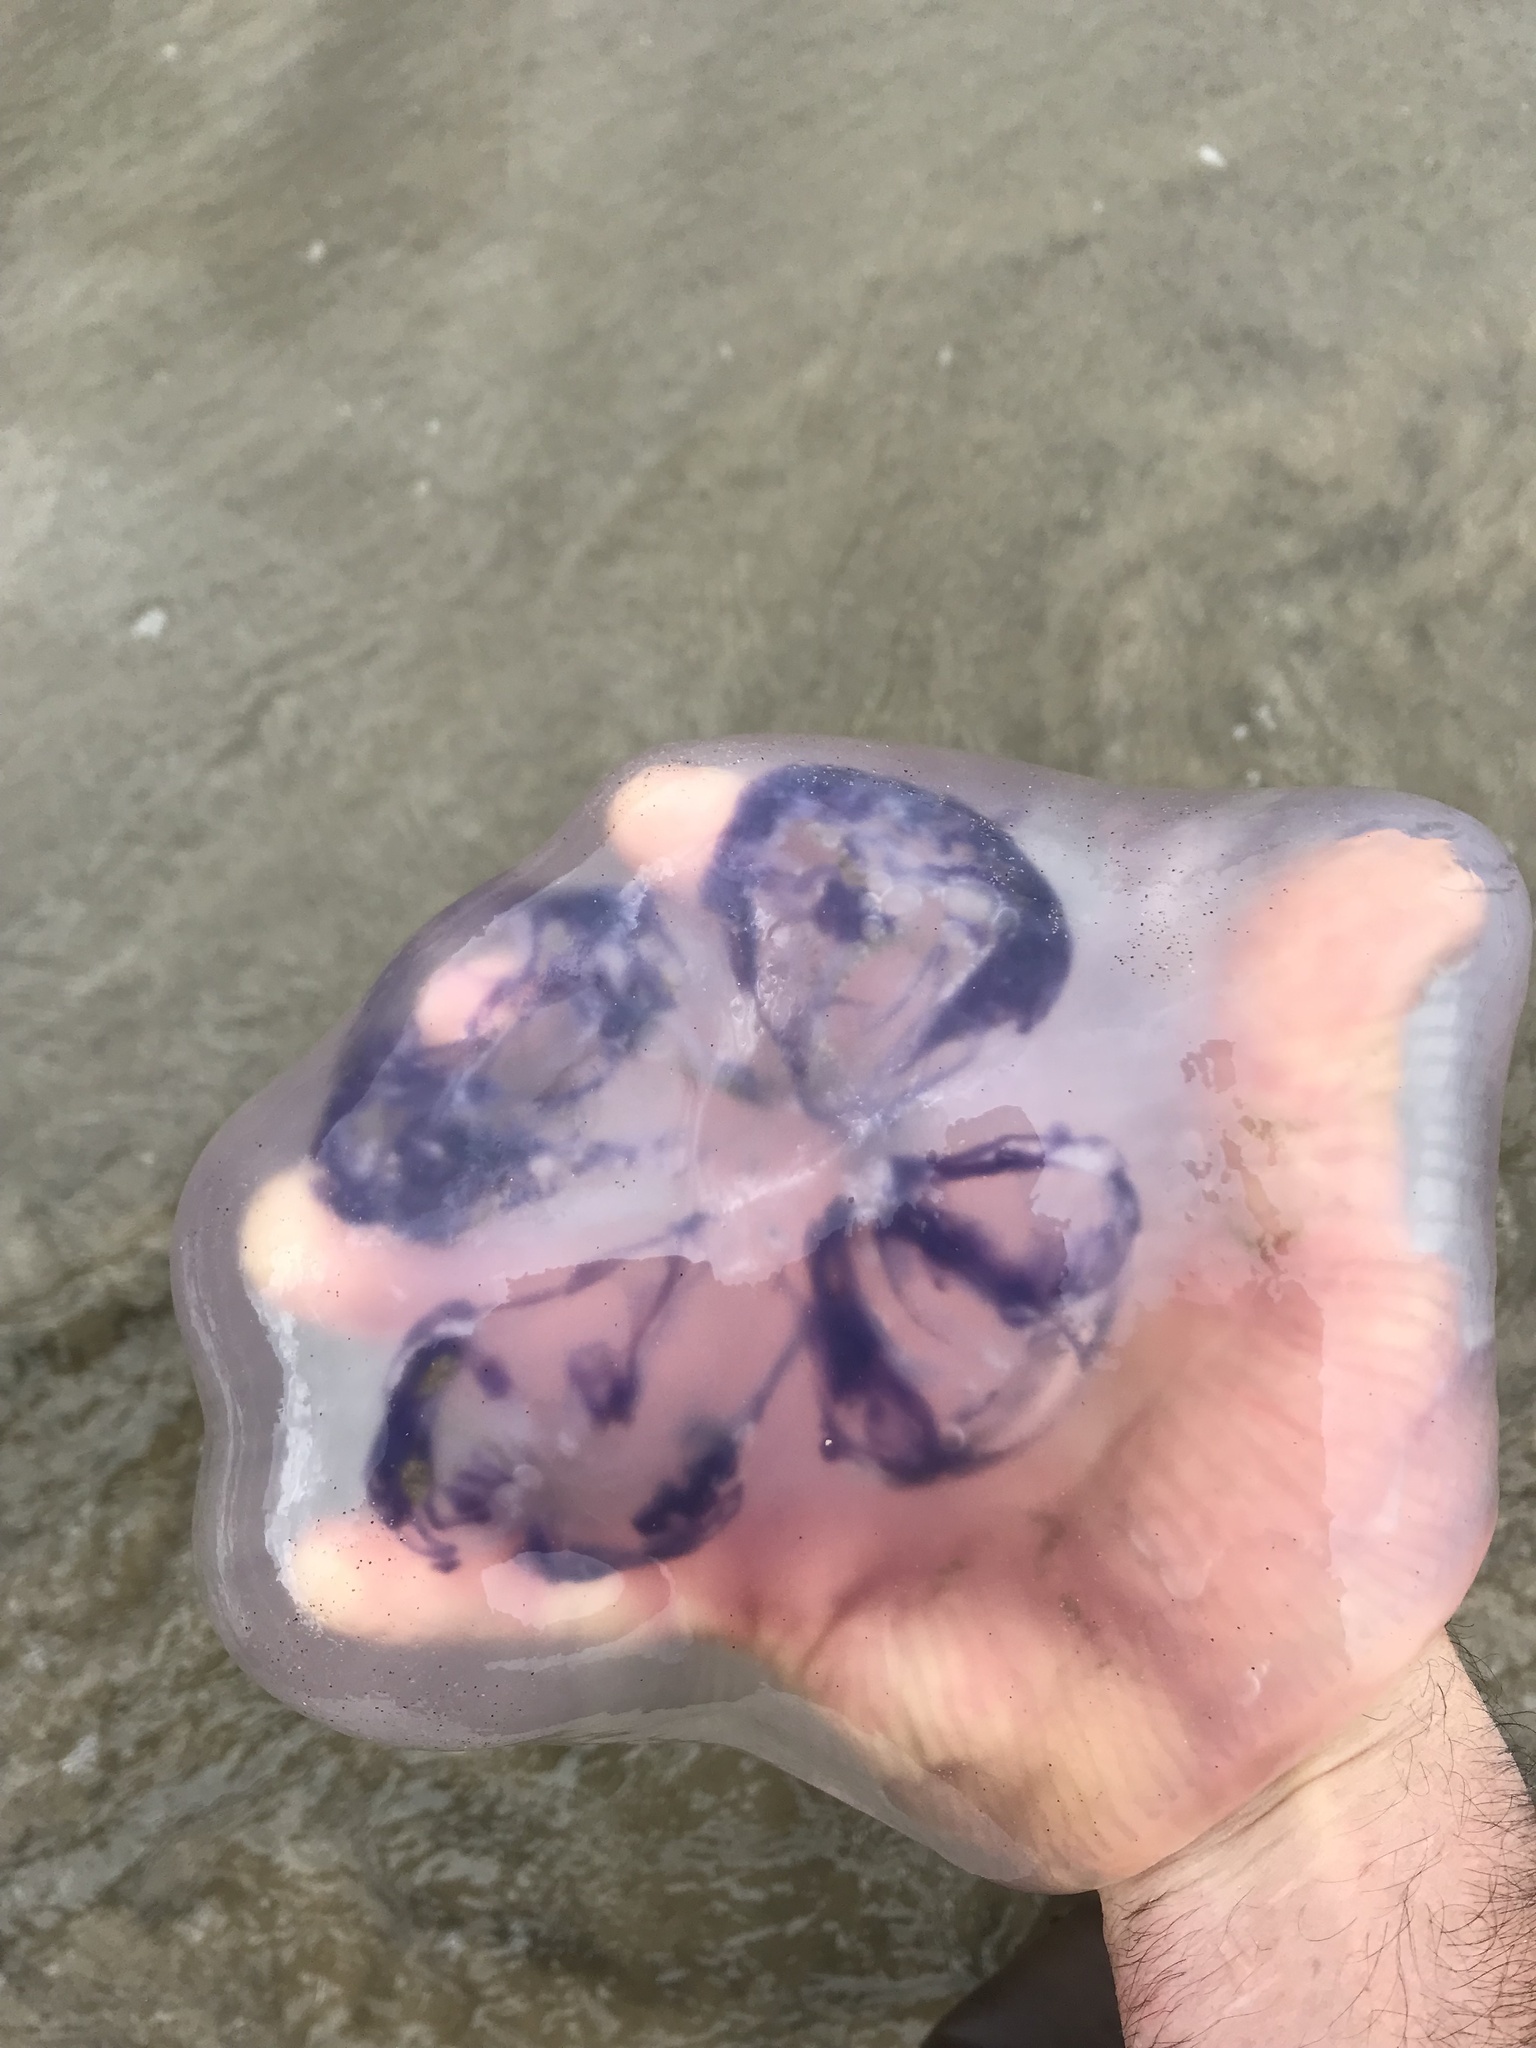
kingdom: Animalia
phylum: Cnidaria
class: Scyphozoa
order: Semaeostomeae
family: Ulmaridae
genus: Aurelia
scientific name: Aurelia labiata
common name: Pacific moon jelly
